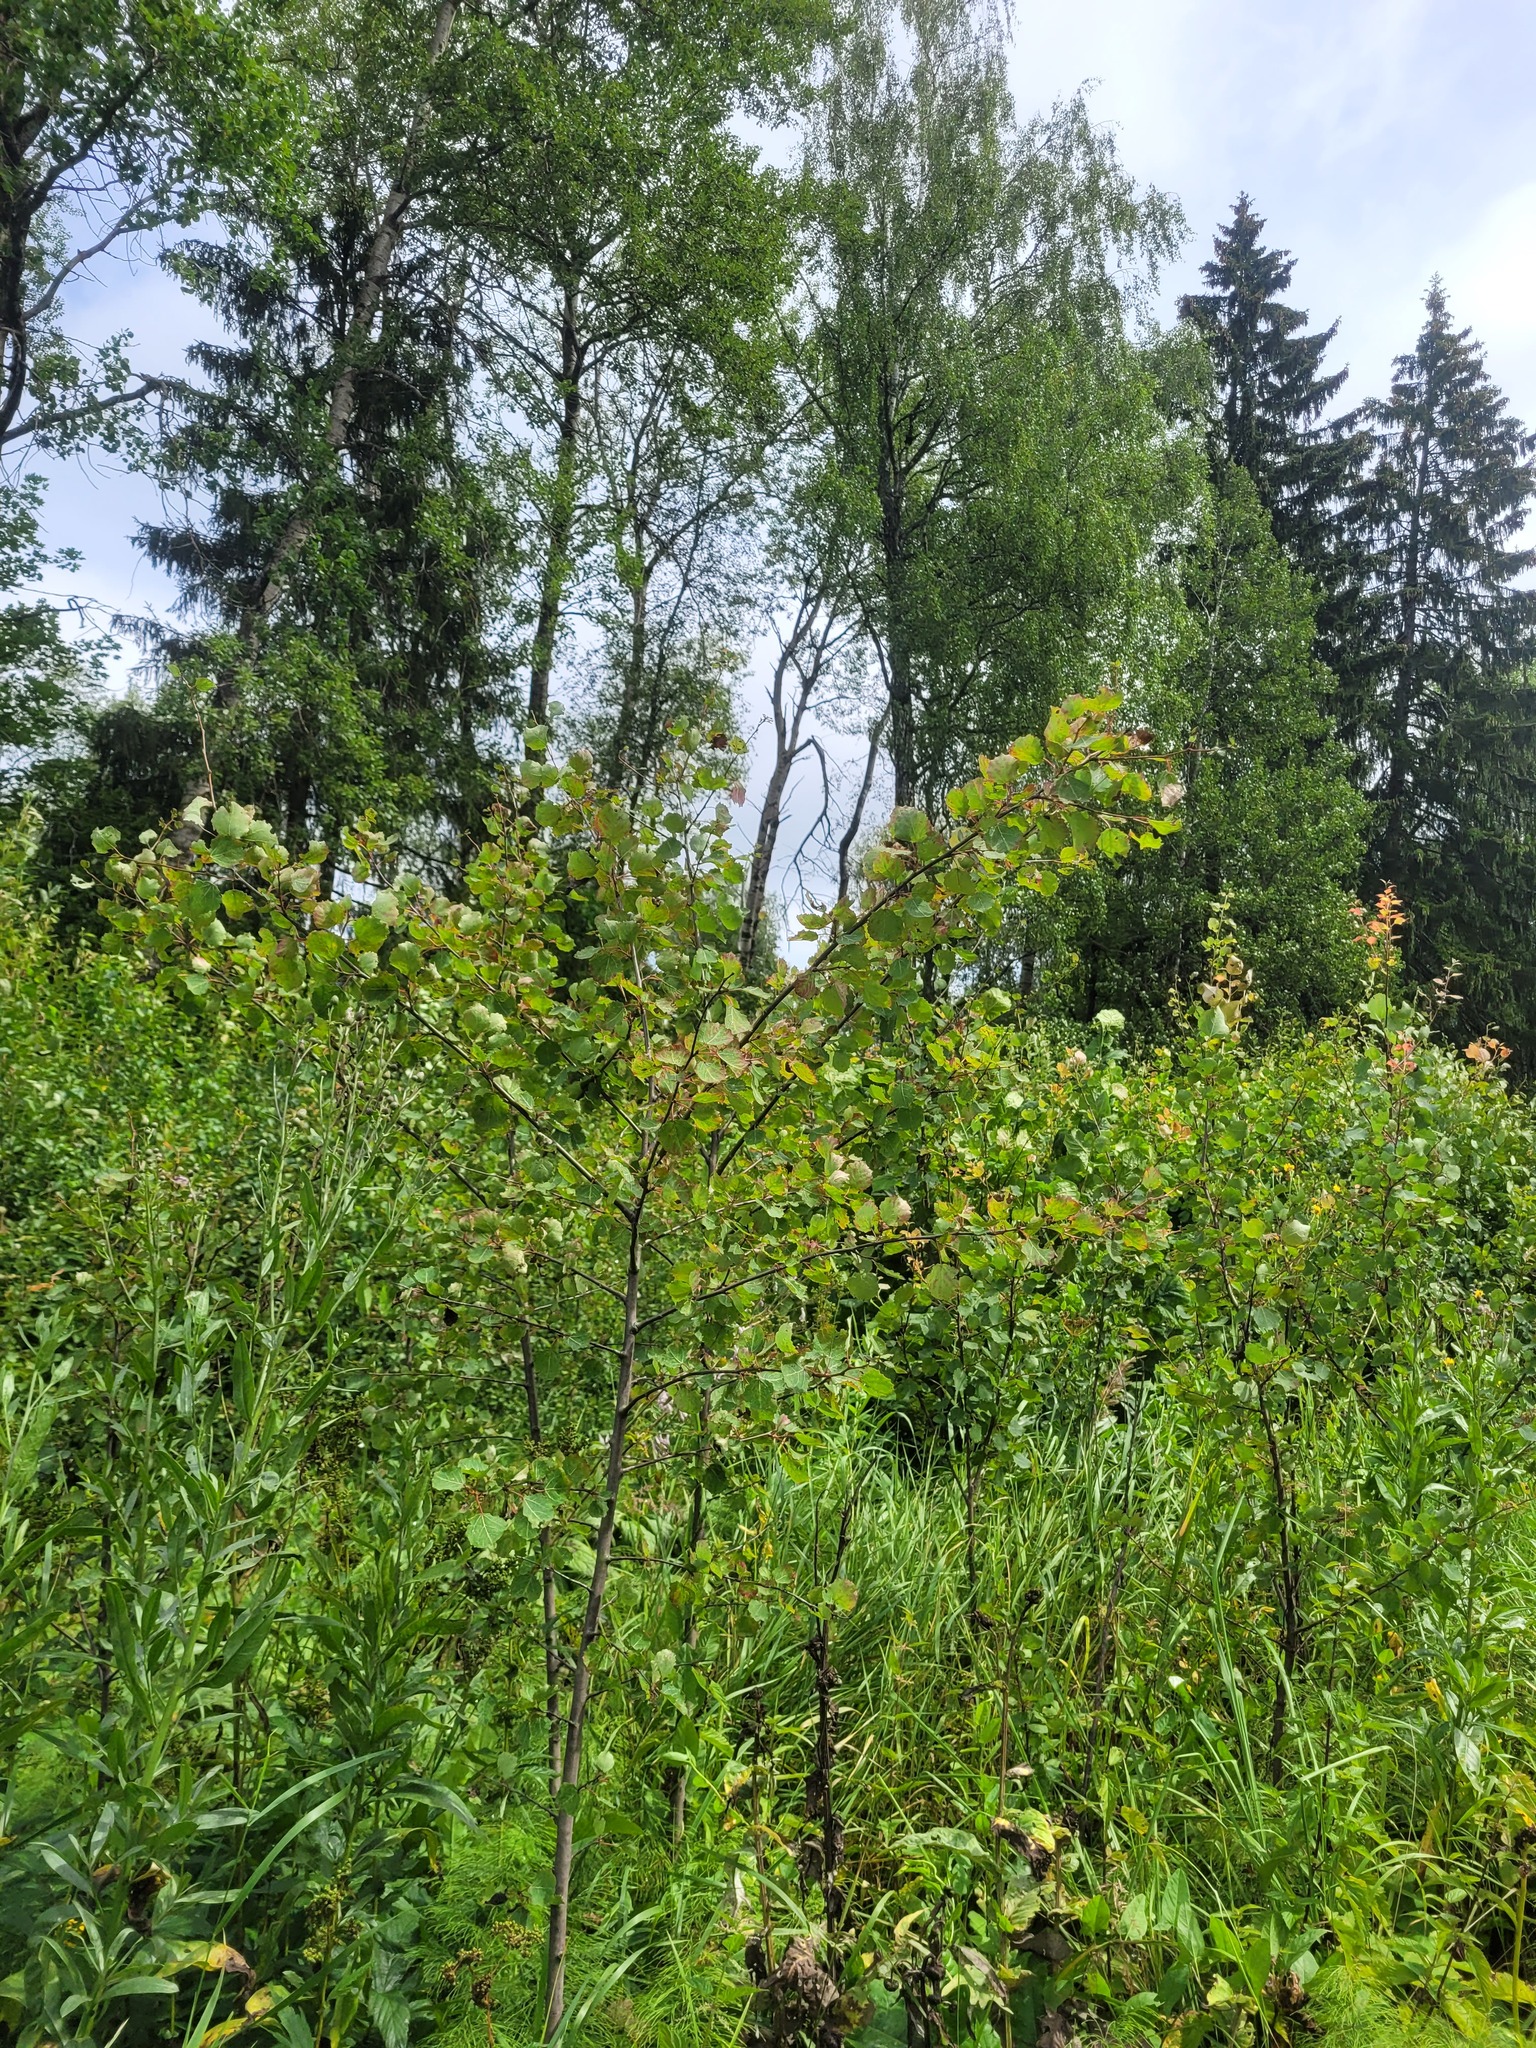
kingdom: Plantae
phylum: Tracheophyta
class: Magnoliopsida
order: Malpighiales
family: Salicaceae
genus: Populus
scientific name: Populus tremula
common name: European aspen
